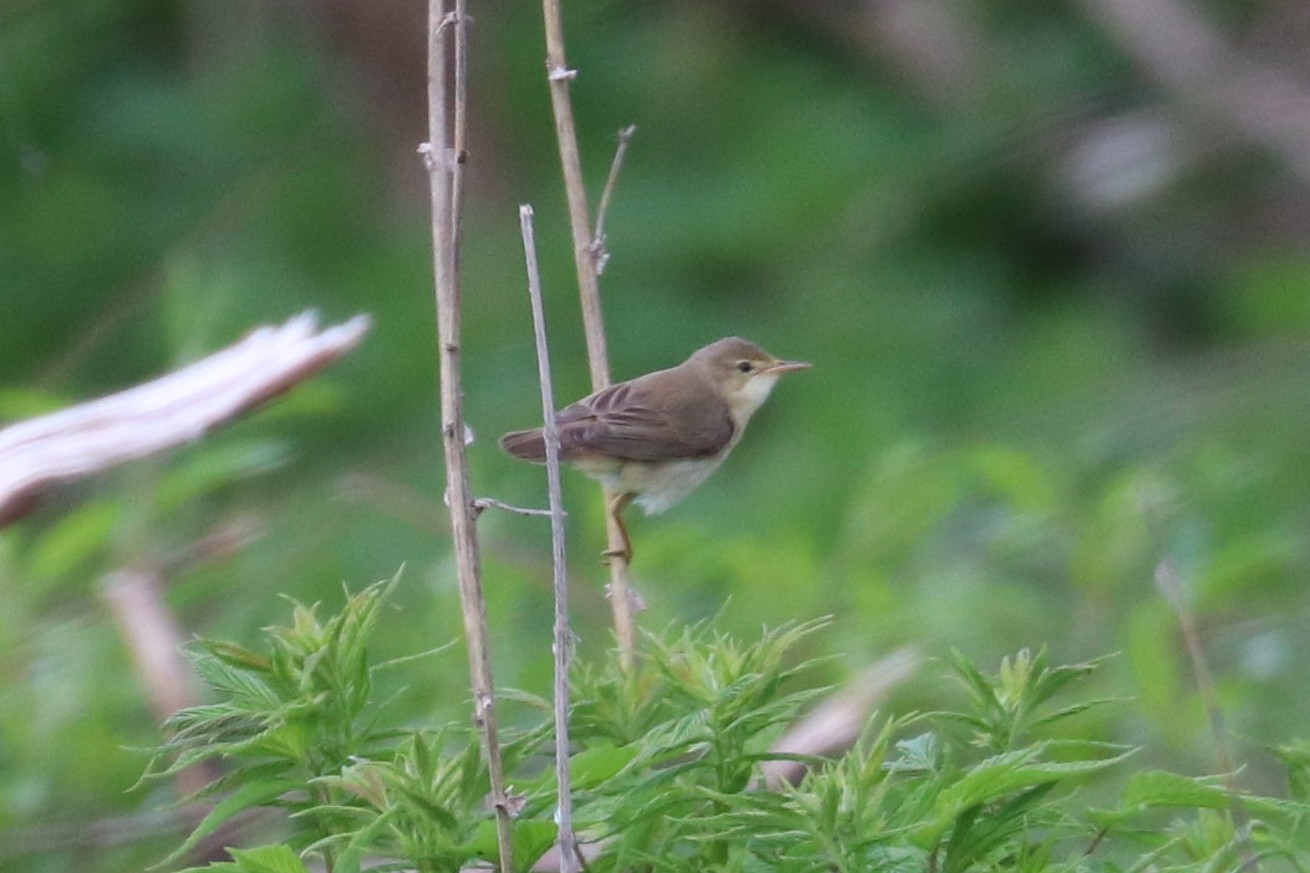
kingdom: Animalia
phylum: Chordata
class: Aves
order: Passeriformes
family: Acrocephalidae
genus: Acrocephalus
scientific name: Acrocephalus palustris
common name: Marsh warbler
